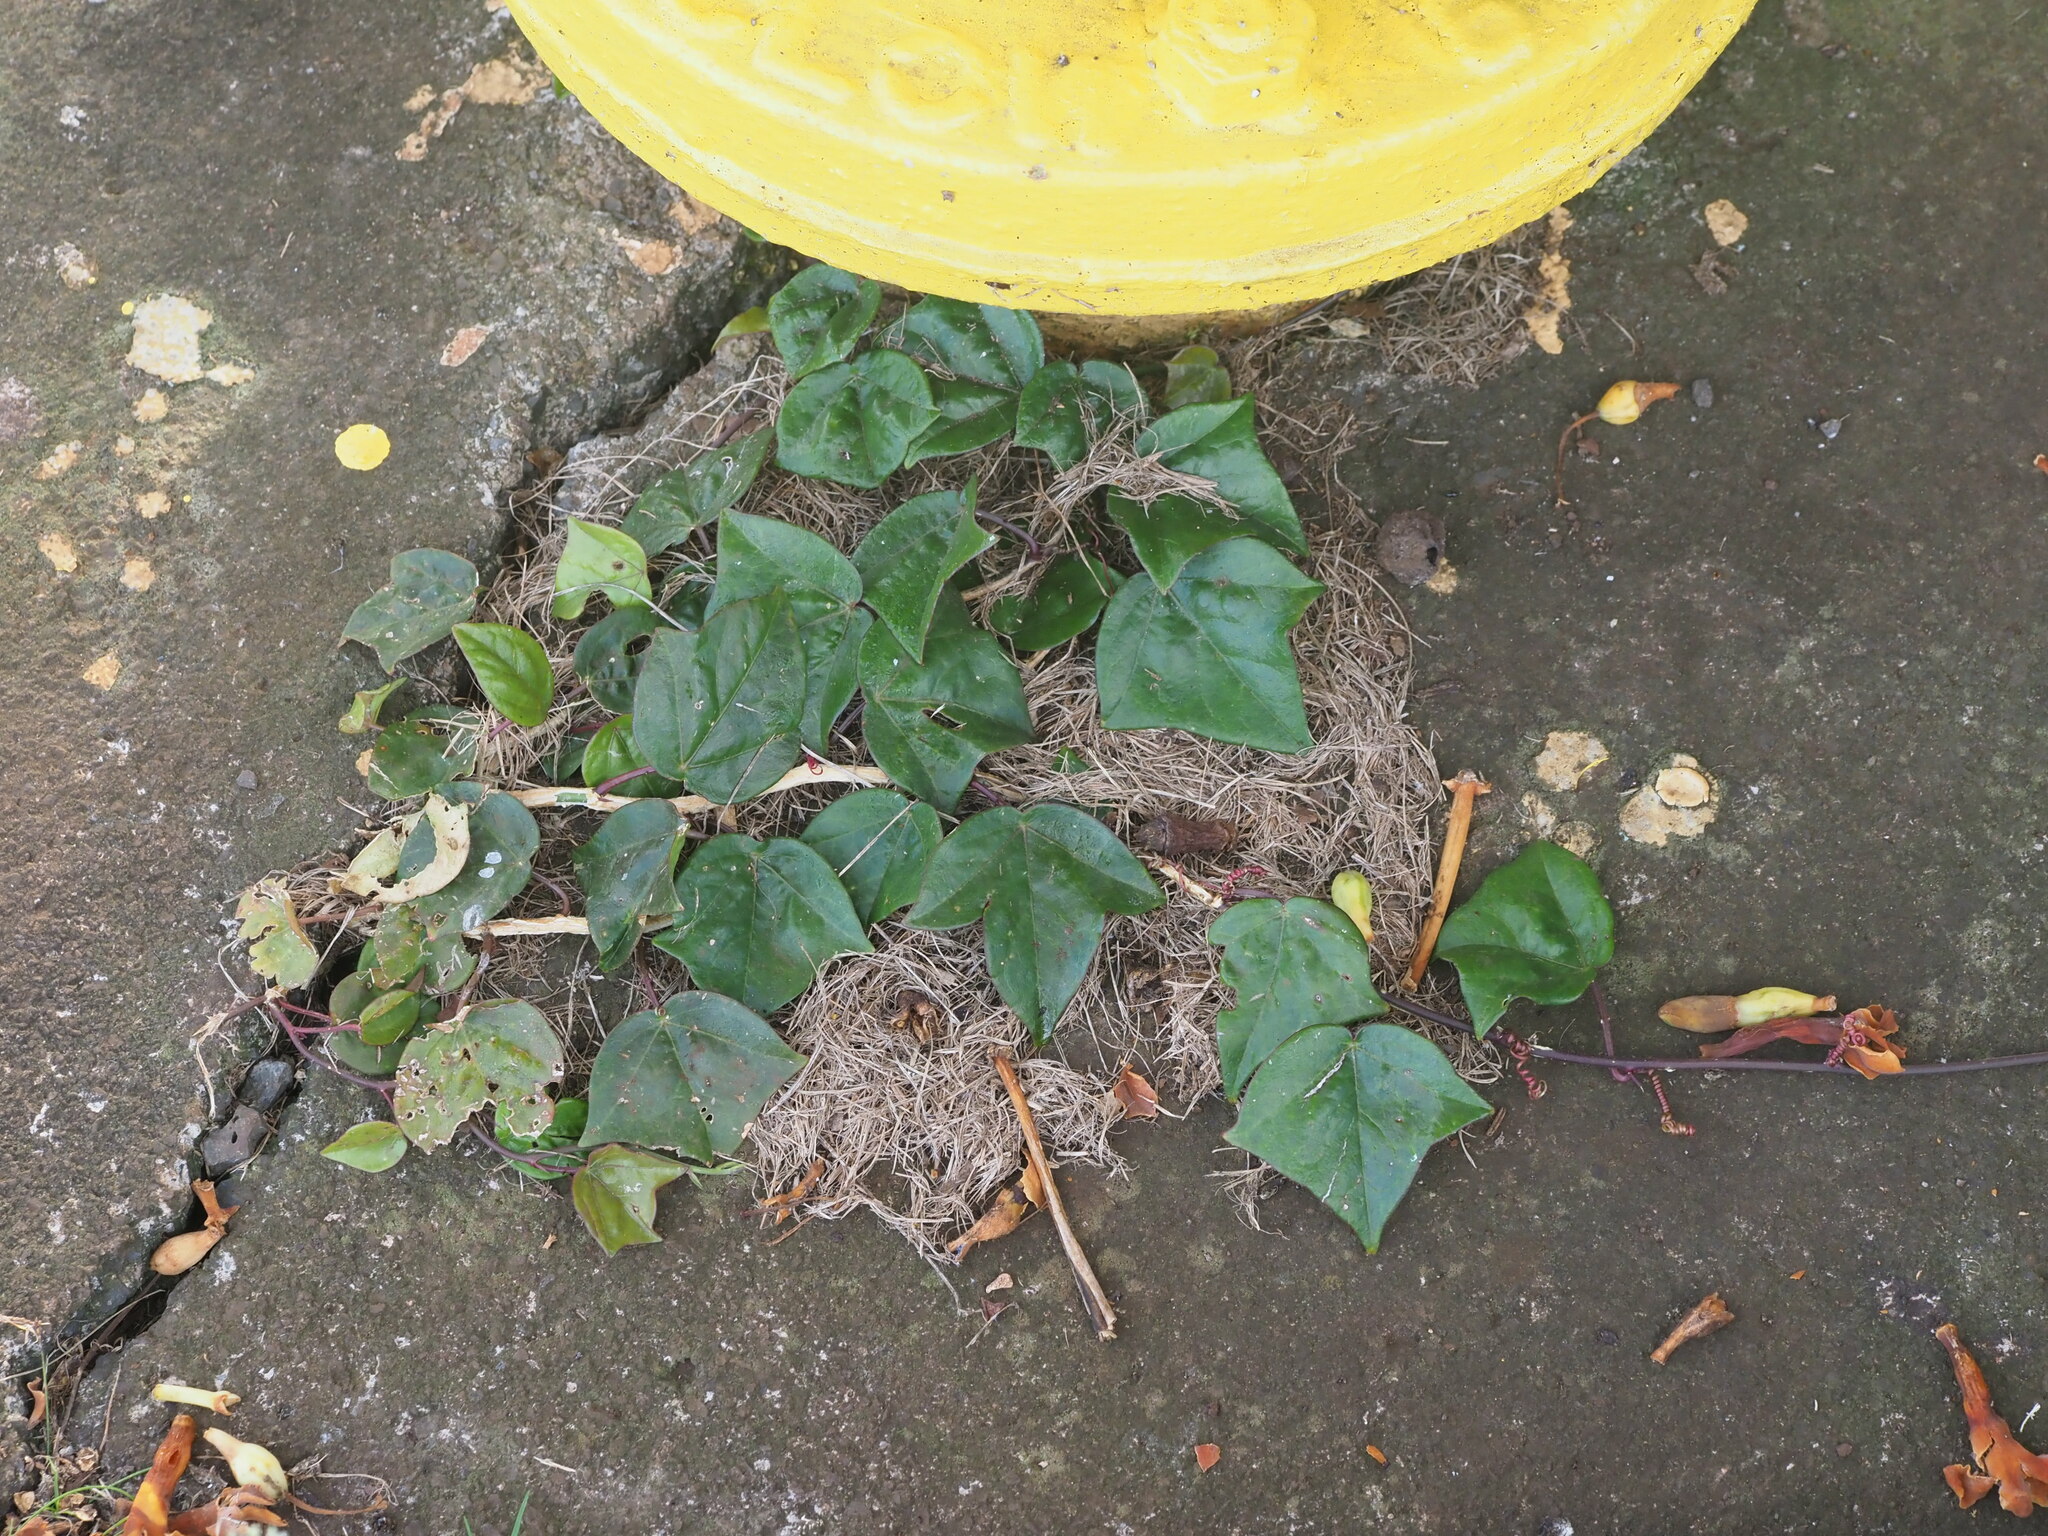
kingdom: Plantae
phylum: Tracheophyta
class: Magnoliopsida
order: Malpighiales
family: Passifloraceae
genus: Passiflora
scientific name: Passiflora suberosa
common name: Wild passionfruit
